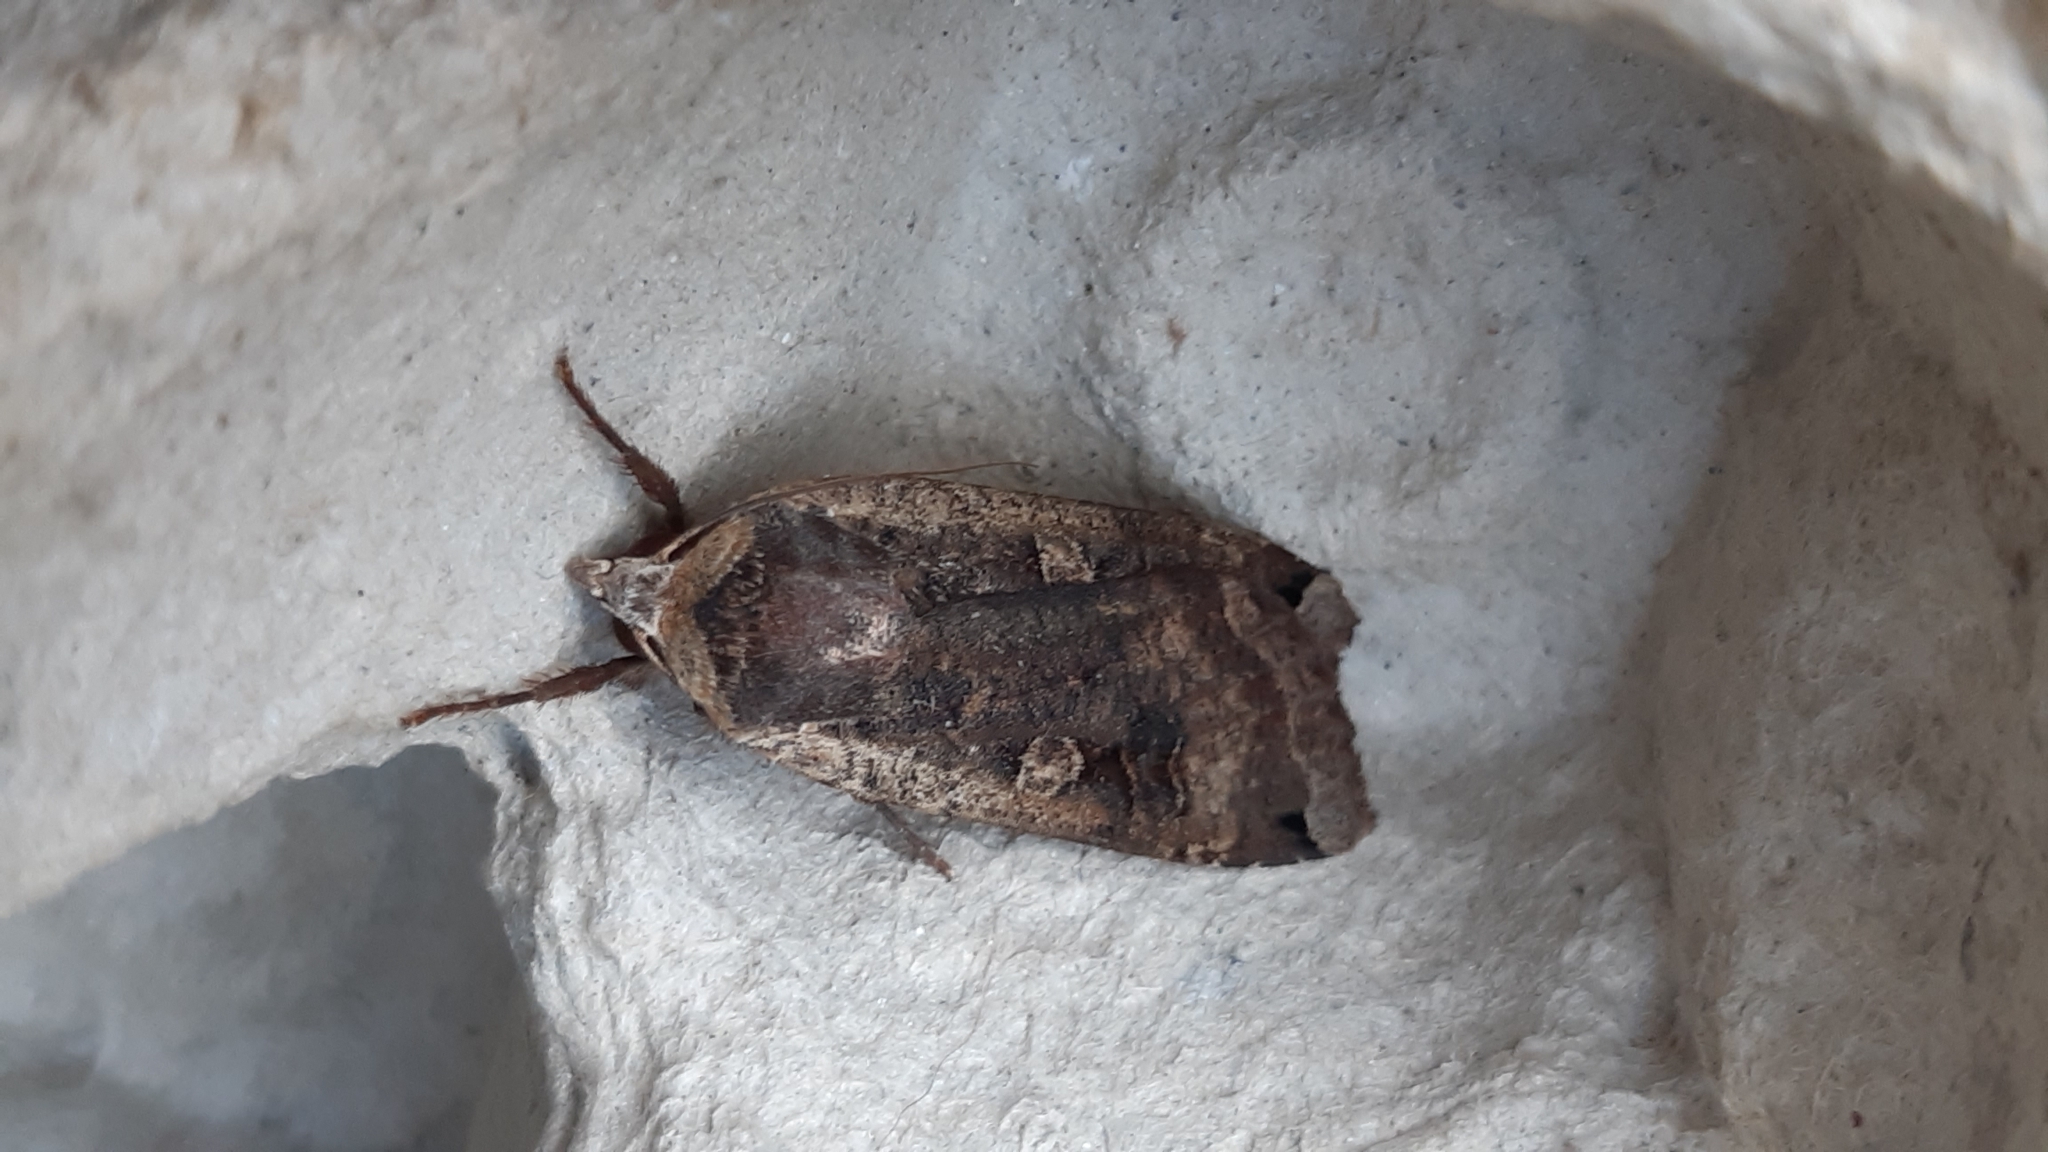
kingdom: Animalia
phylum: Arthropoda
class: Insecta
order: Lepidoptera
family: Noctuidae
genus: Noctua
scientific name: Noctua pronuba
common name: Large yellow underwing
